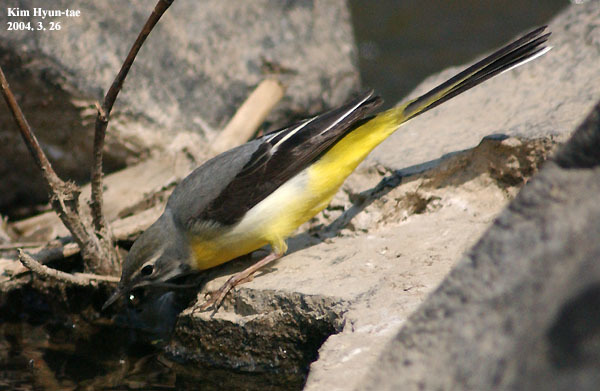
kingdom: Animalia
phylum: Chordata
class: Aves
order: Passeriformes
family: Motacillidae
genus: Motacilla
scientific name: Motacilla cinerea
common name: Grey wagtail
